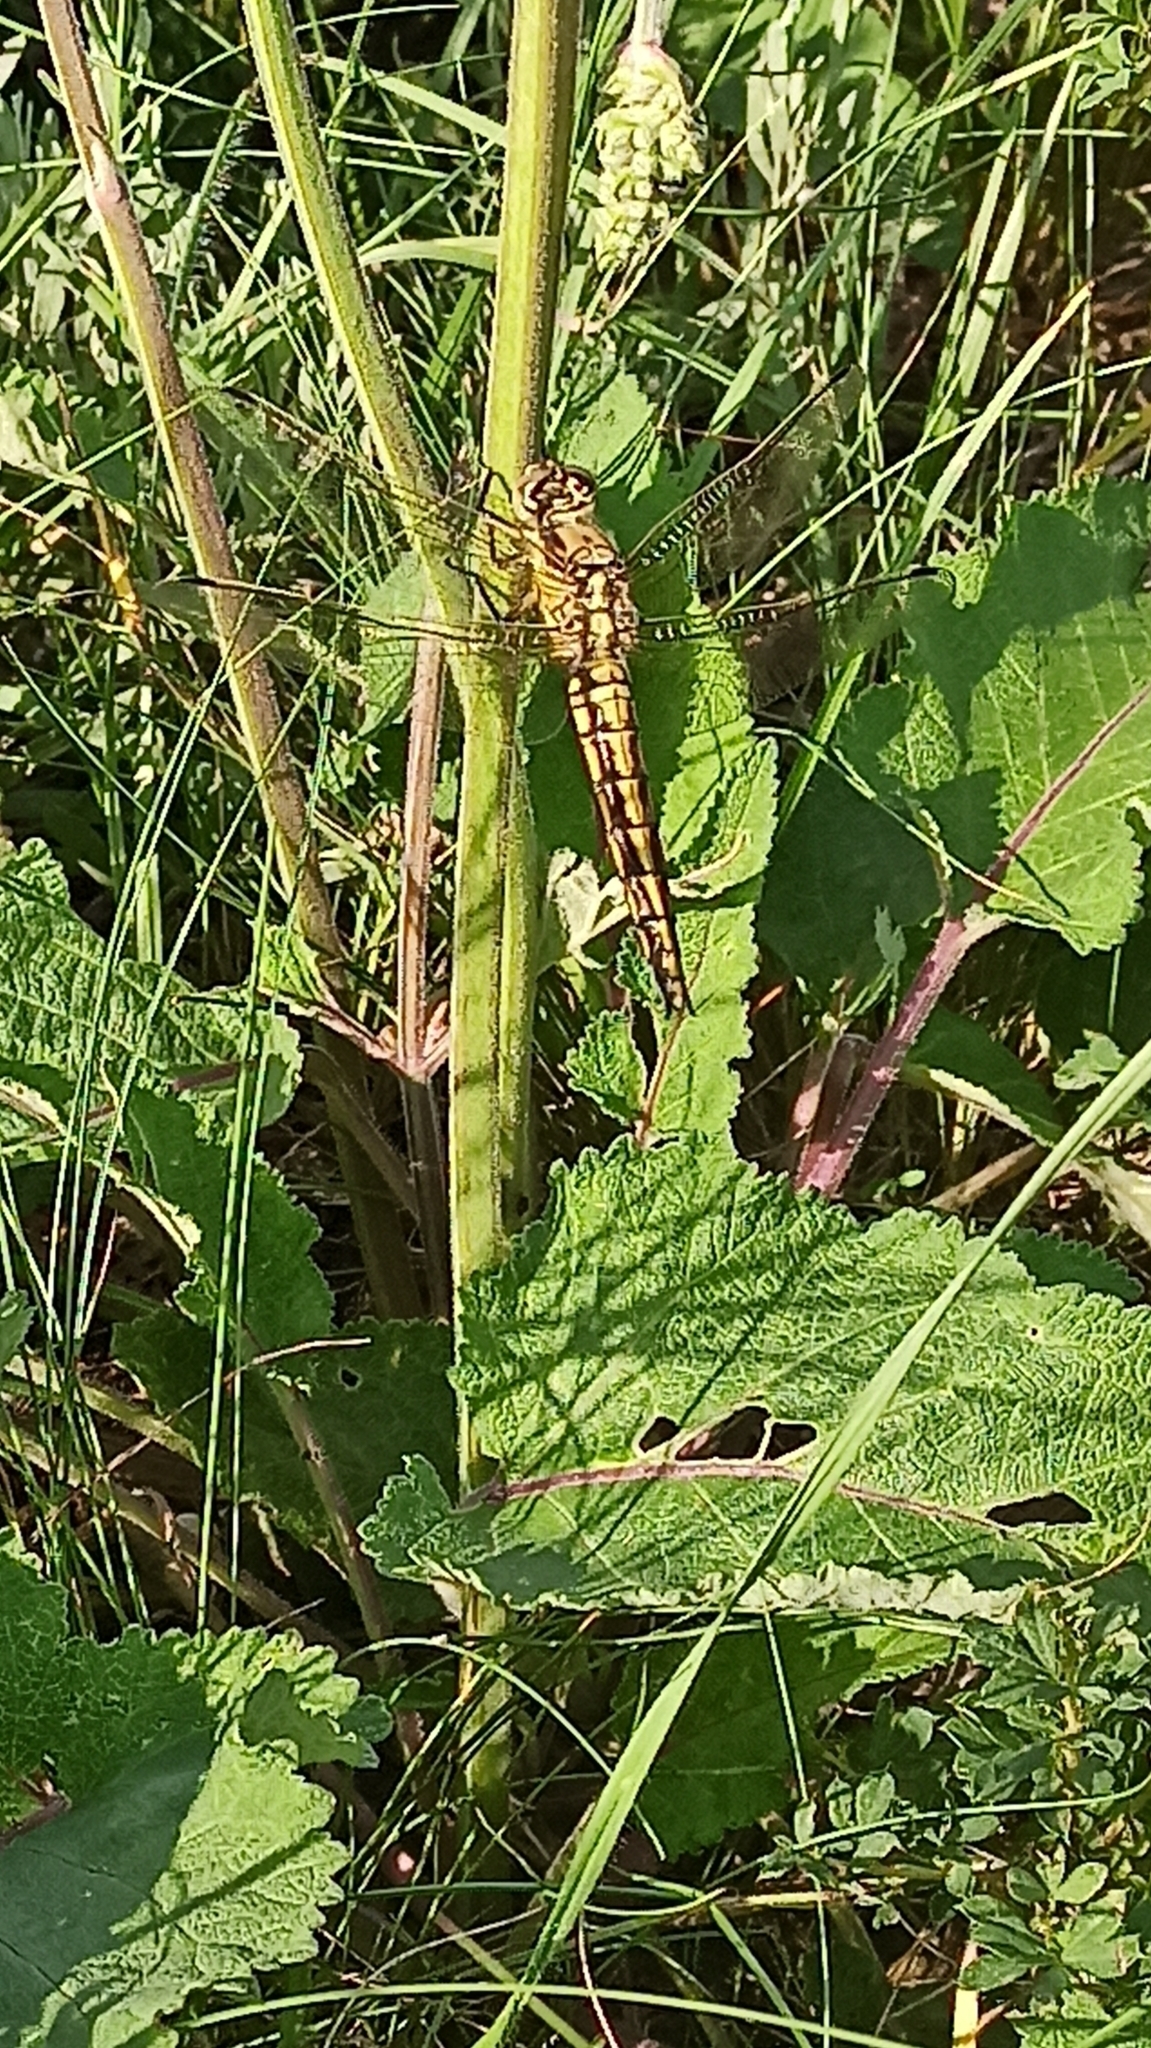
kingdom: Animalia
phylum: Arthropoda
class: Insecta
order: Odonata
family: Libellulidae
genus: Orthetrum
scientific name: Orthetrum cancellatum
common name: Black-tailed skimmer
